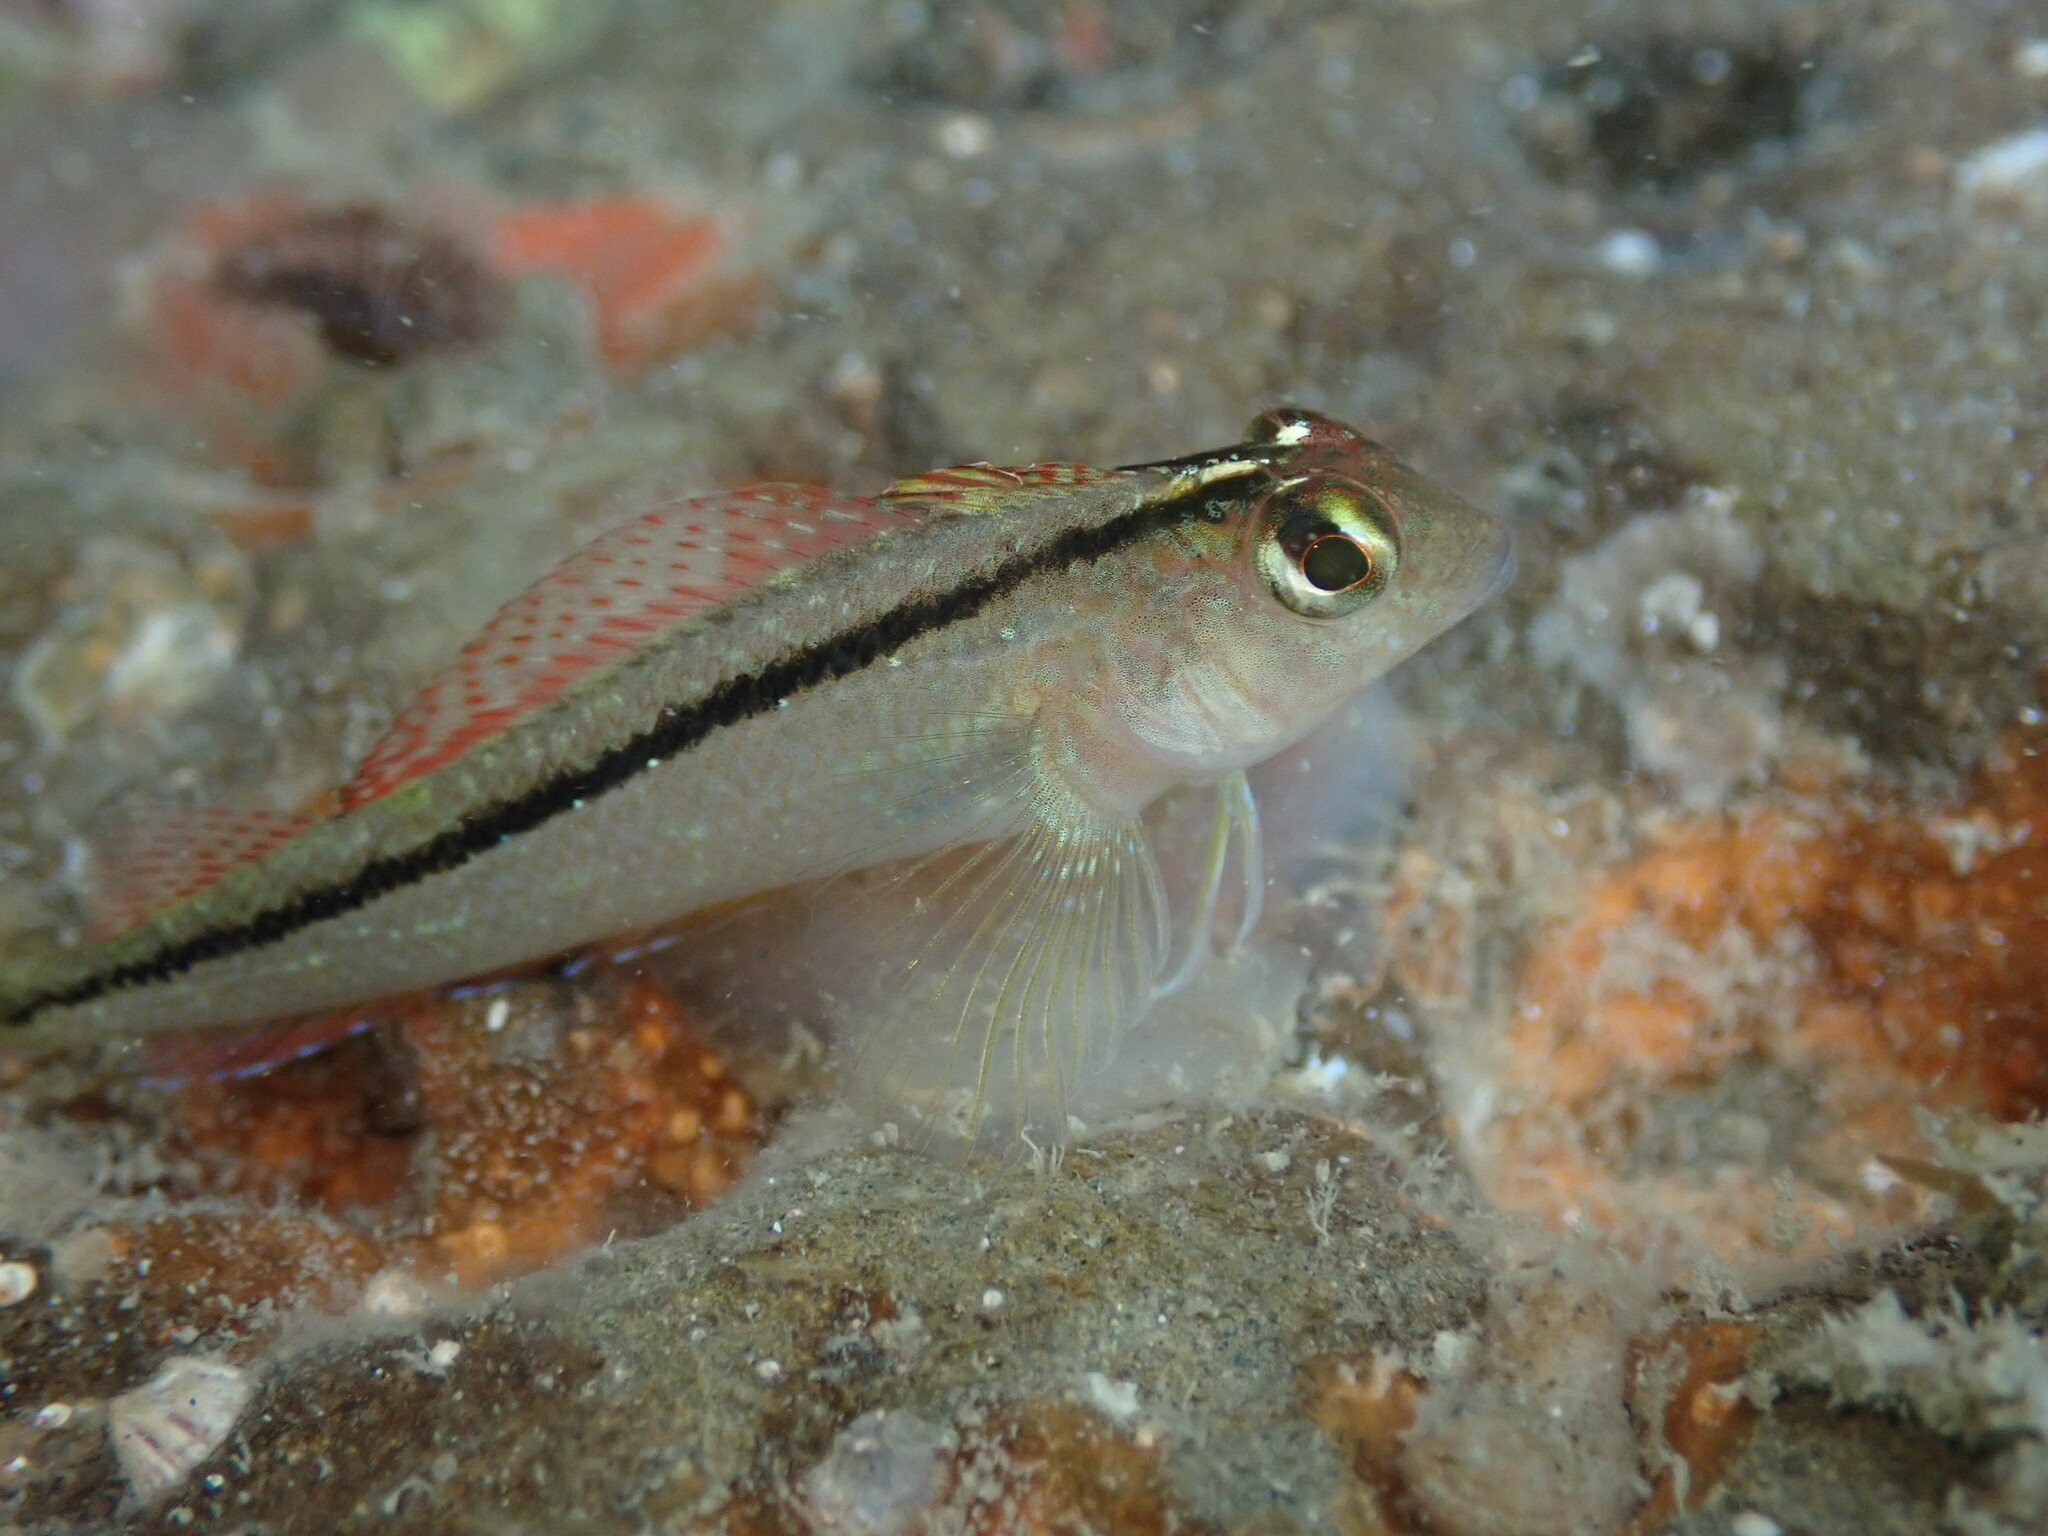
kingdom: Animalia
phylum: Chordata
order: Perciformes
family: Tripterygiidae
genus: Forsterygion
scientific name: Forsterygion lapillum
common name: Common triplefin
